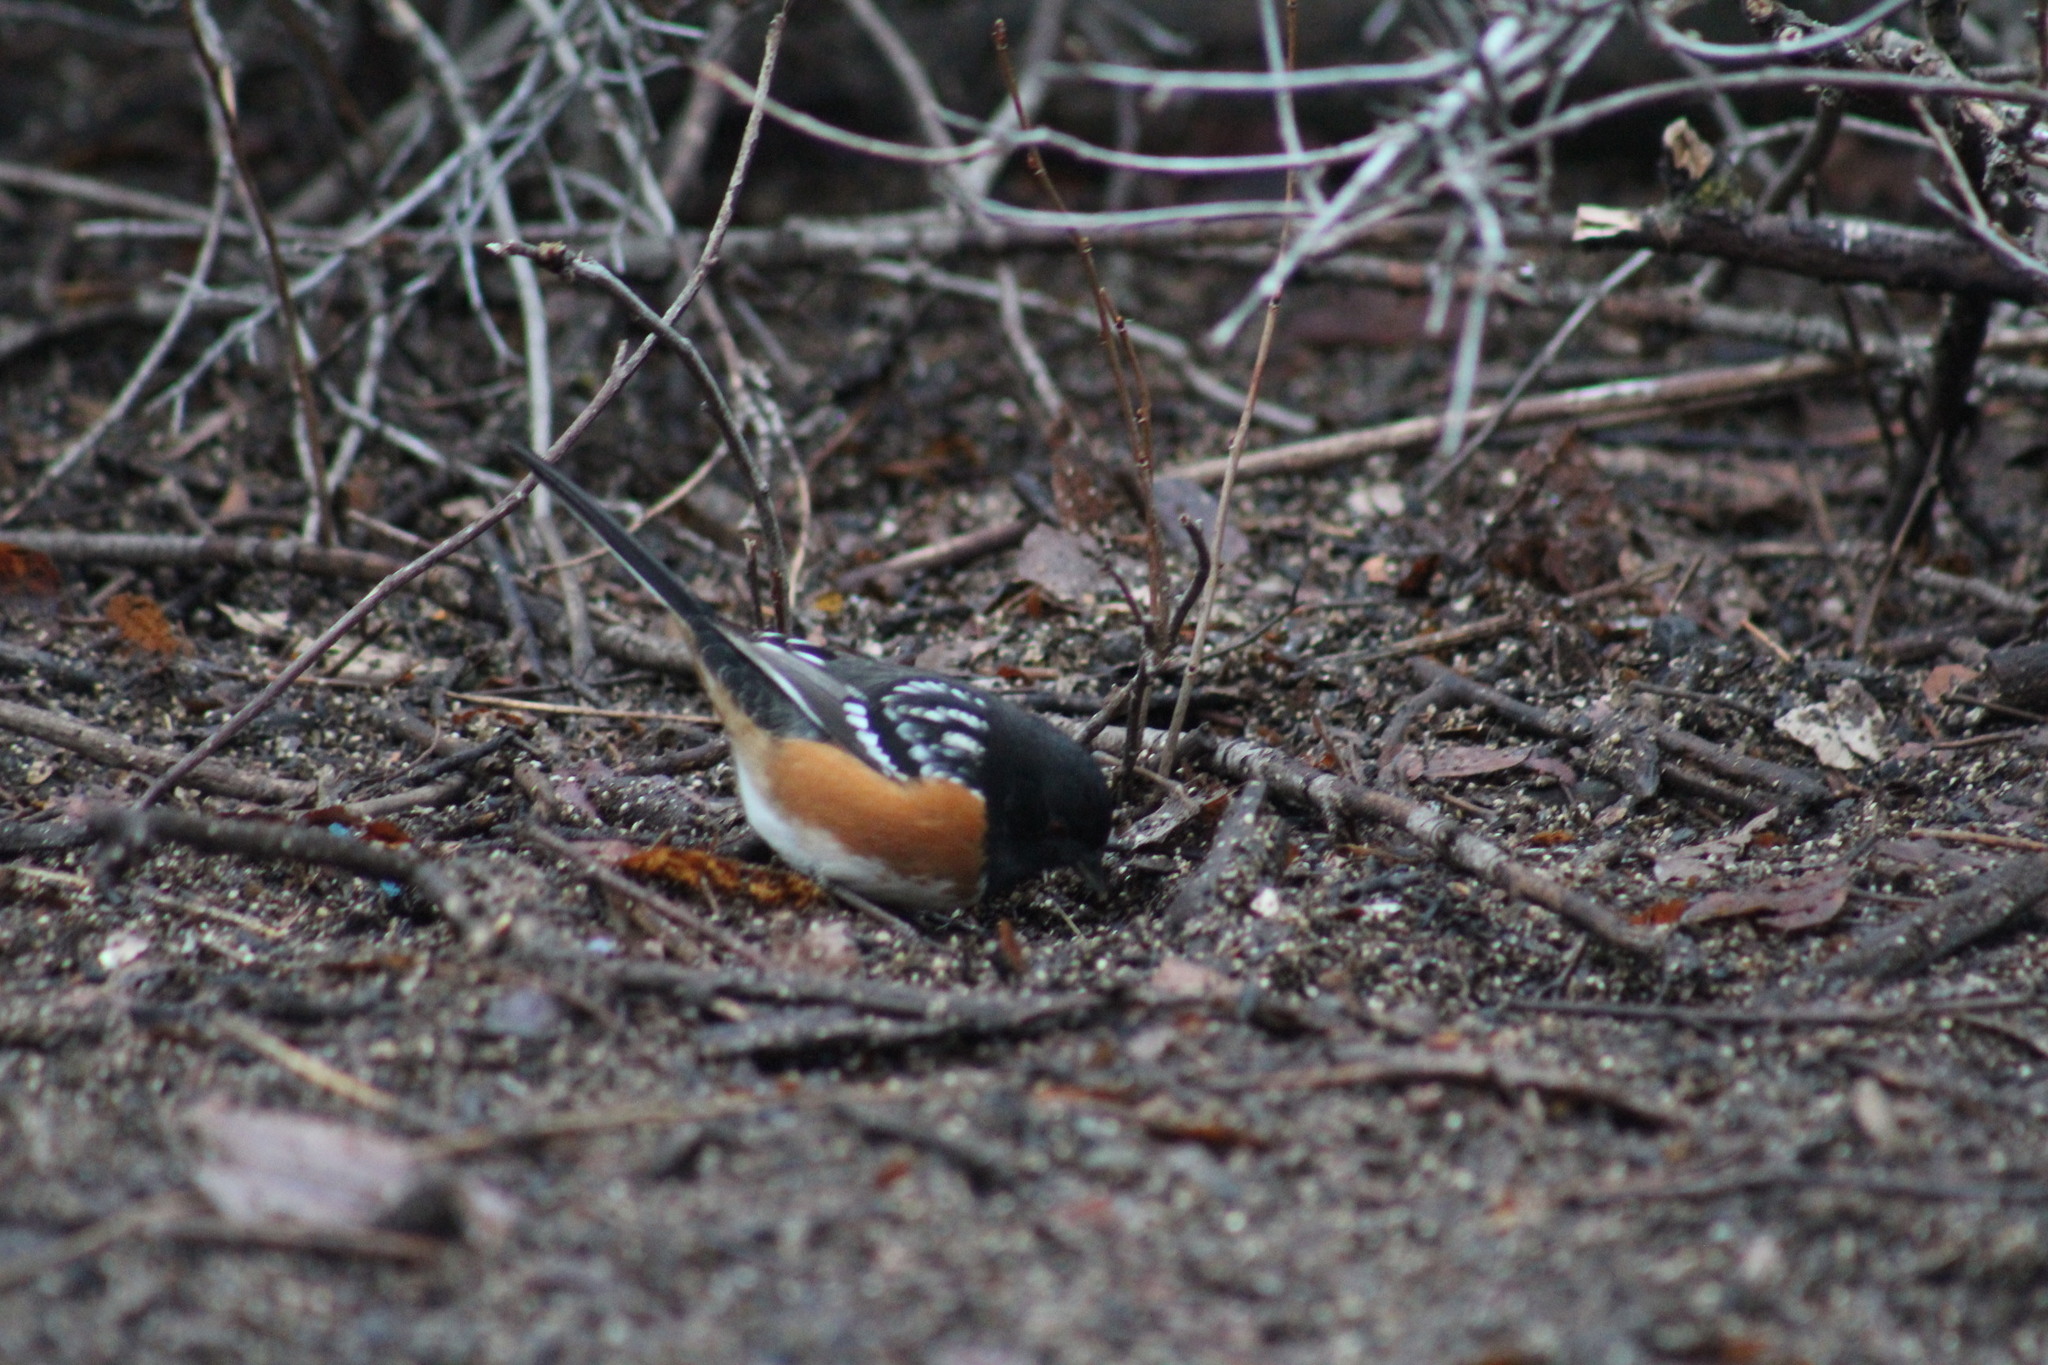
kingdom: Animalia
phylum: Chordata
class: Aves
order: Passeriformes
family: Passerellidae
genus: Pipilo
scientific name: Pipilo maculatus
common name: Spotted towhee
